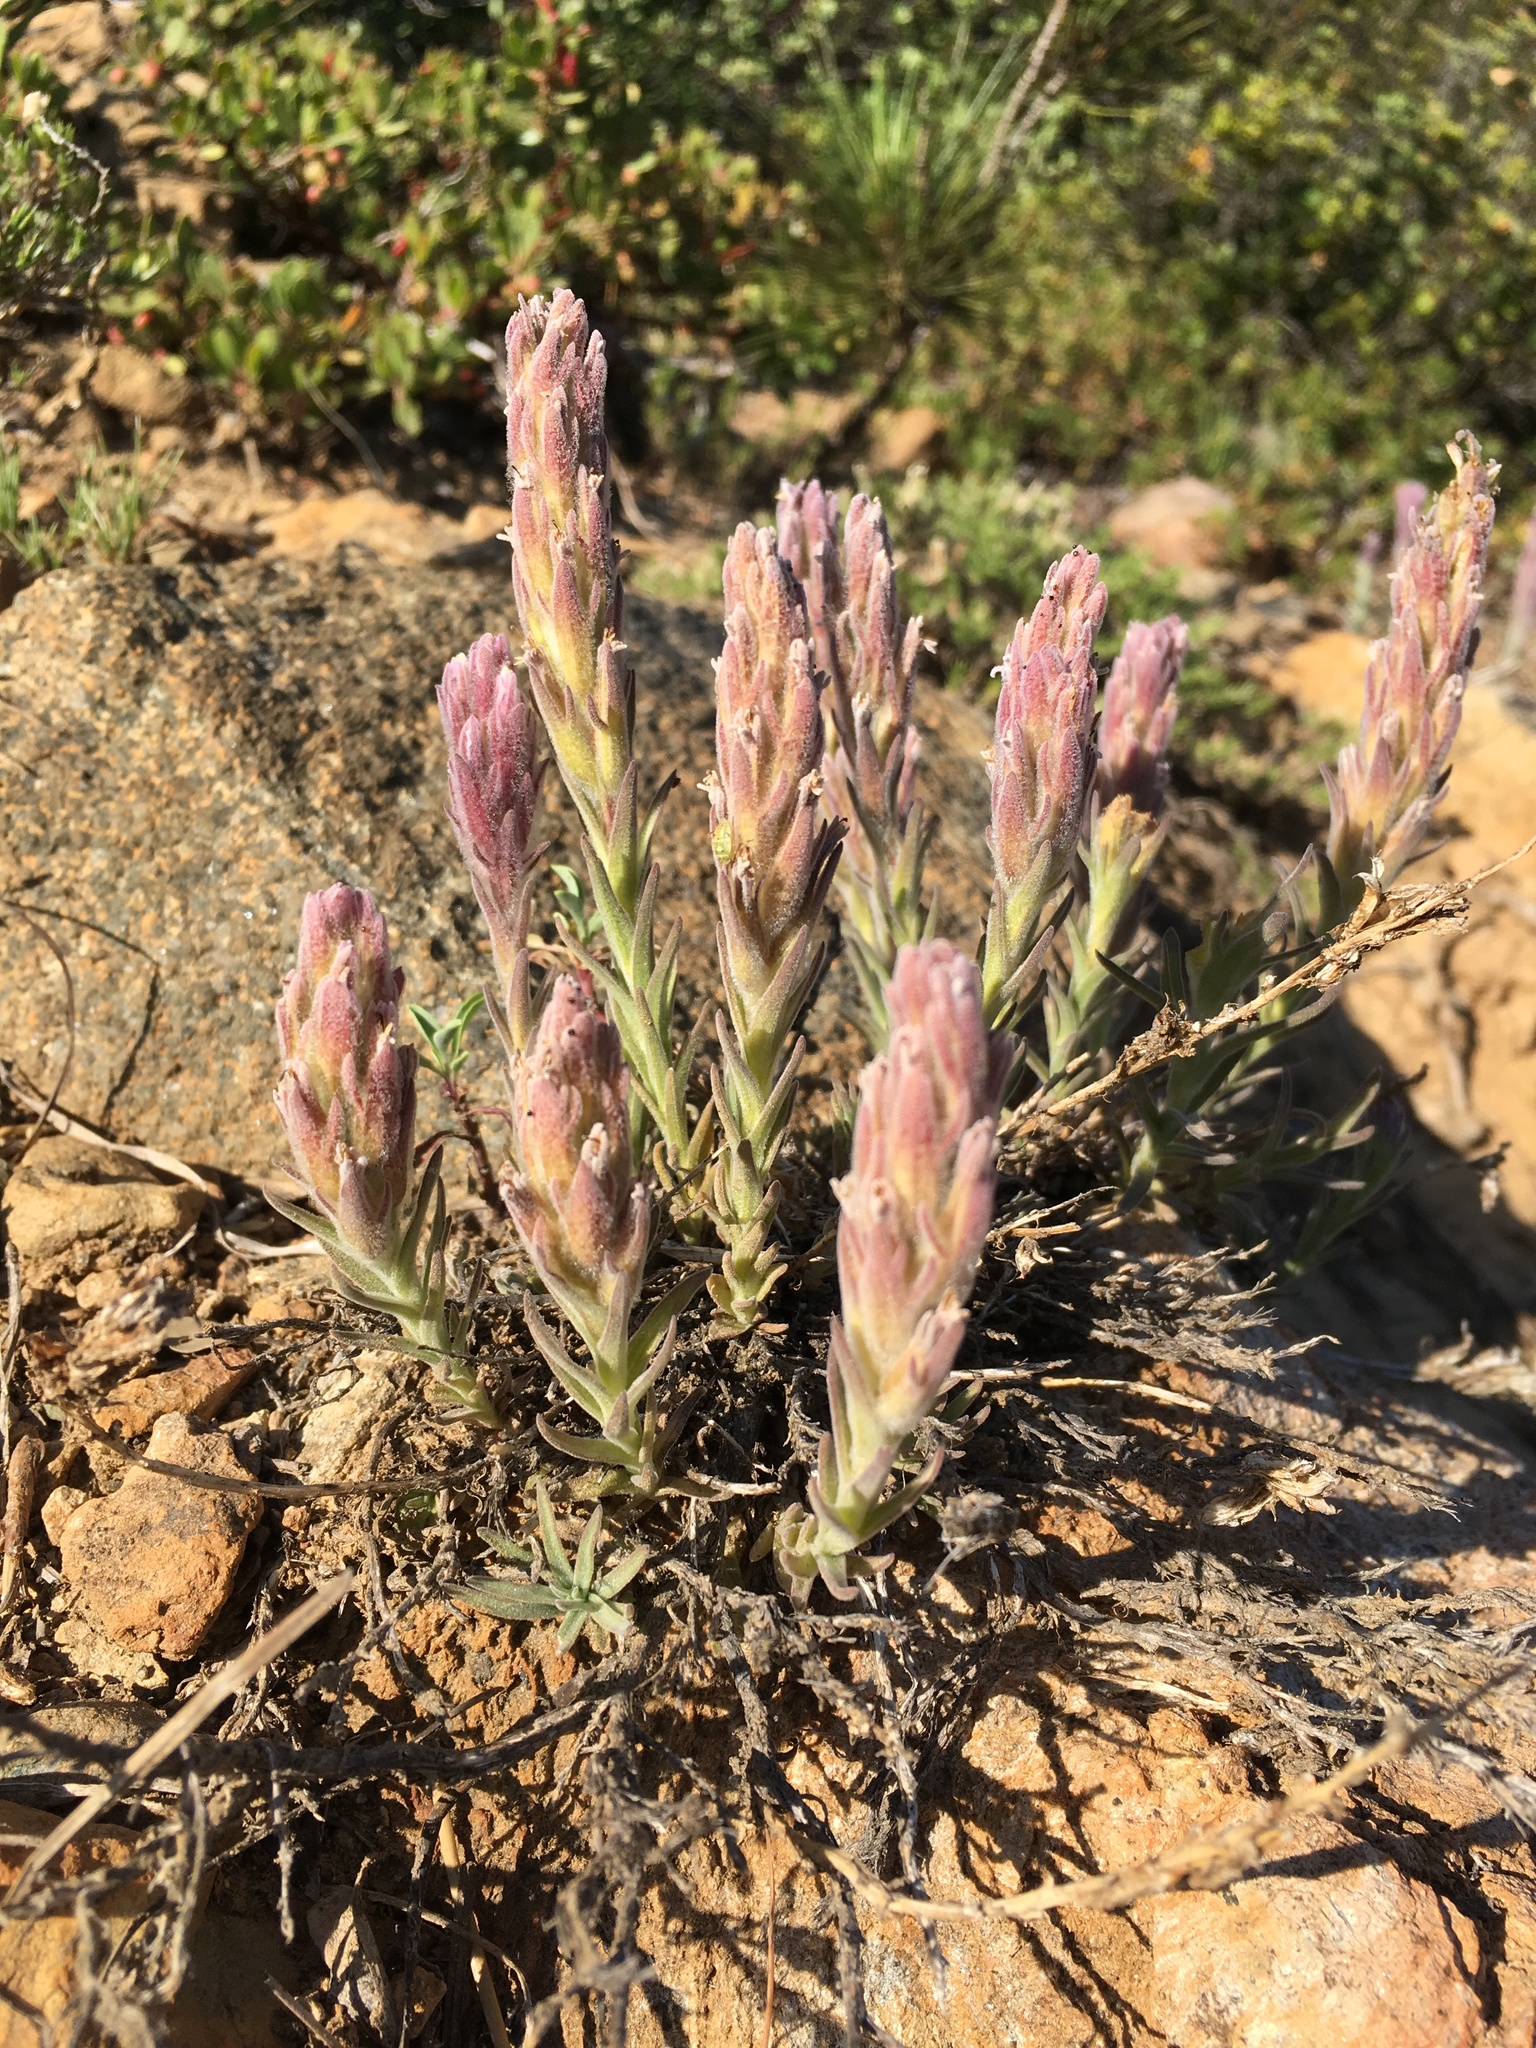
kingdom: Plantae
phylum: Tracheophyta
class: Magnoliopsida
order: Lamiales
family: Orobanchaceae
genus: Castilleja
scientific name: Castilleja schizotricha
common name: Split-hair indian paintbrush
